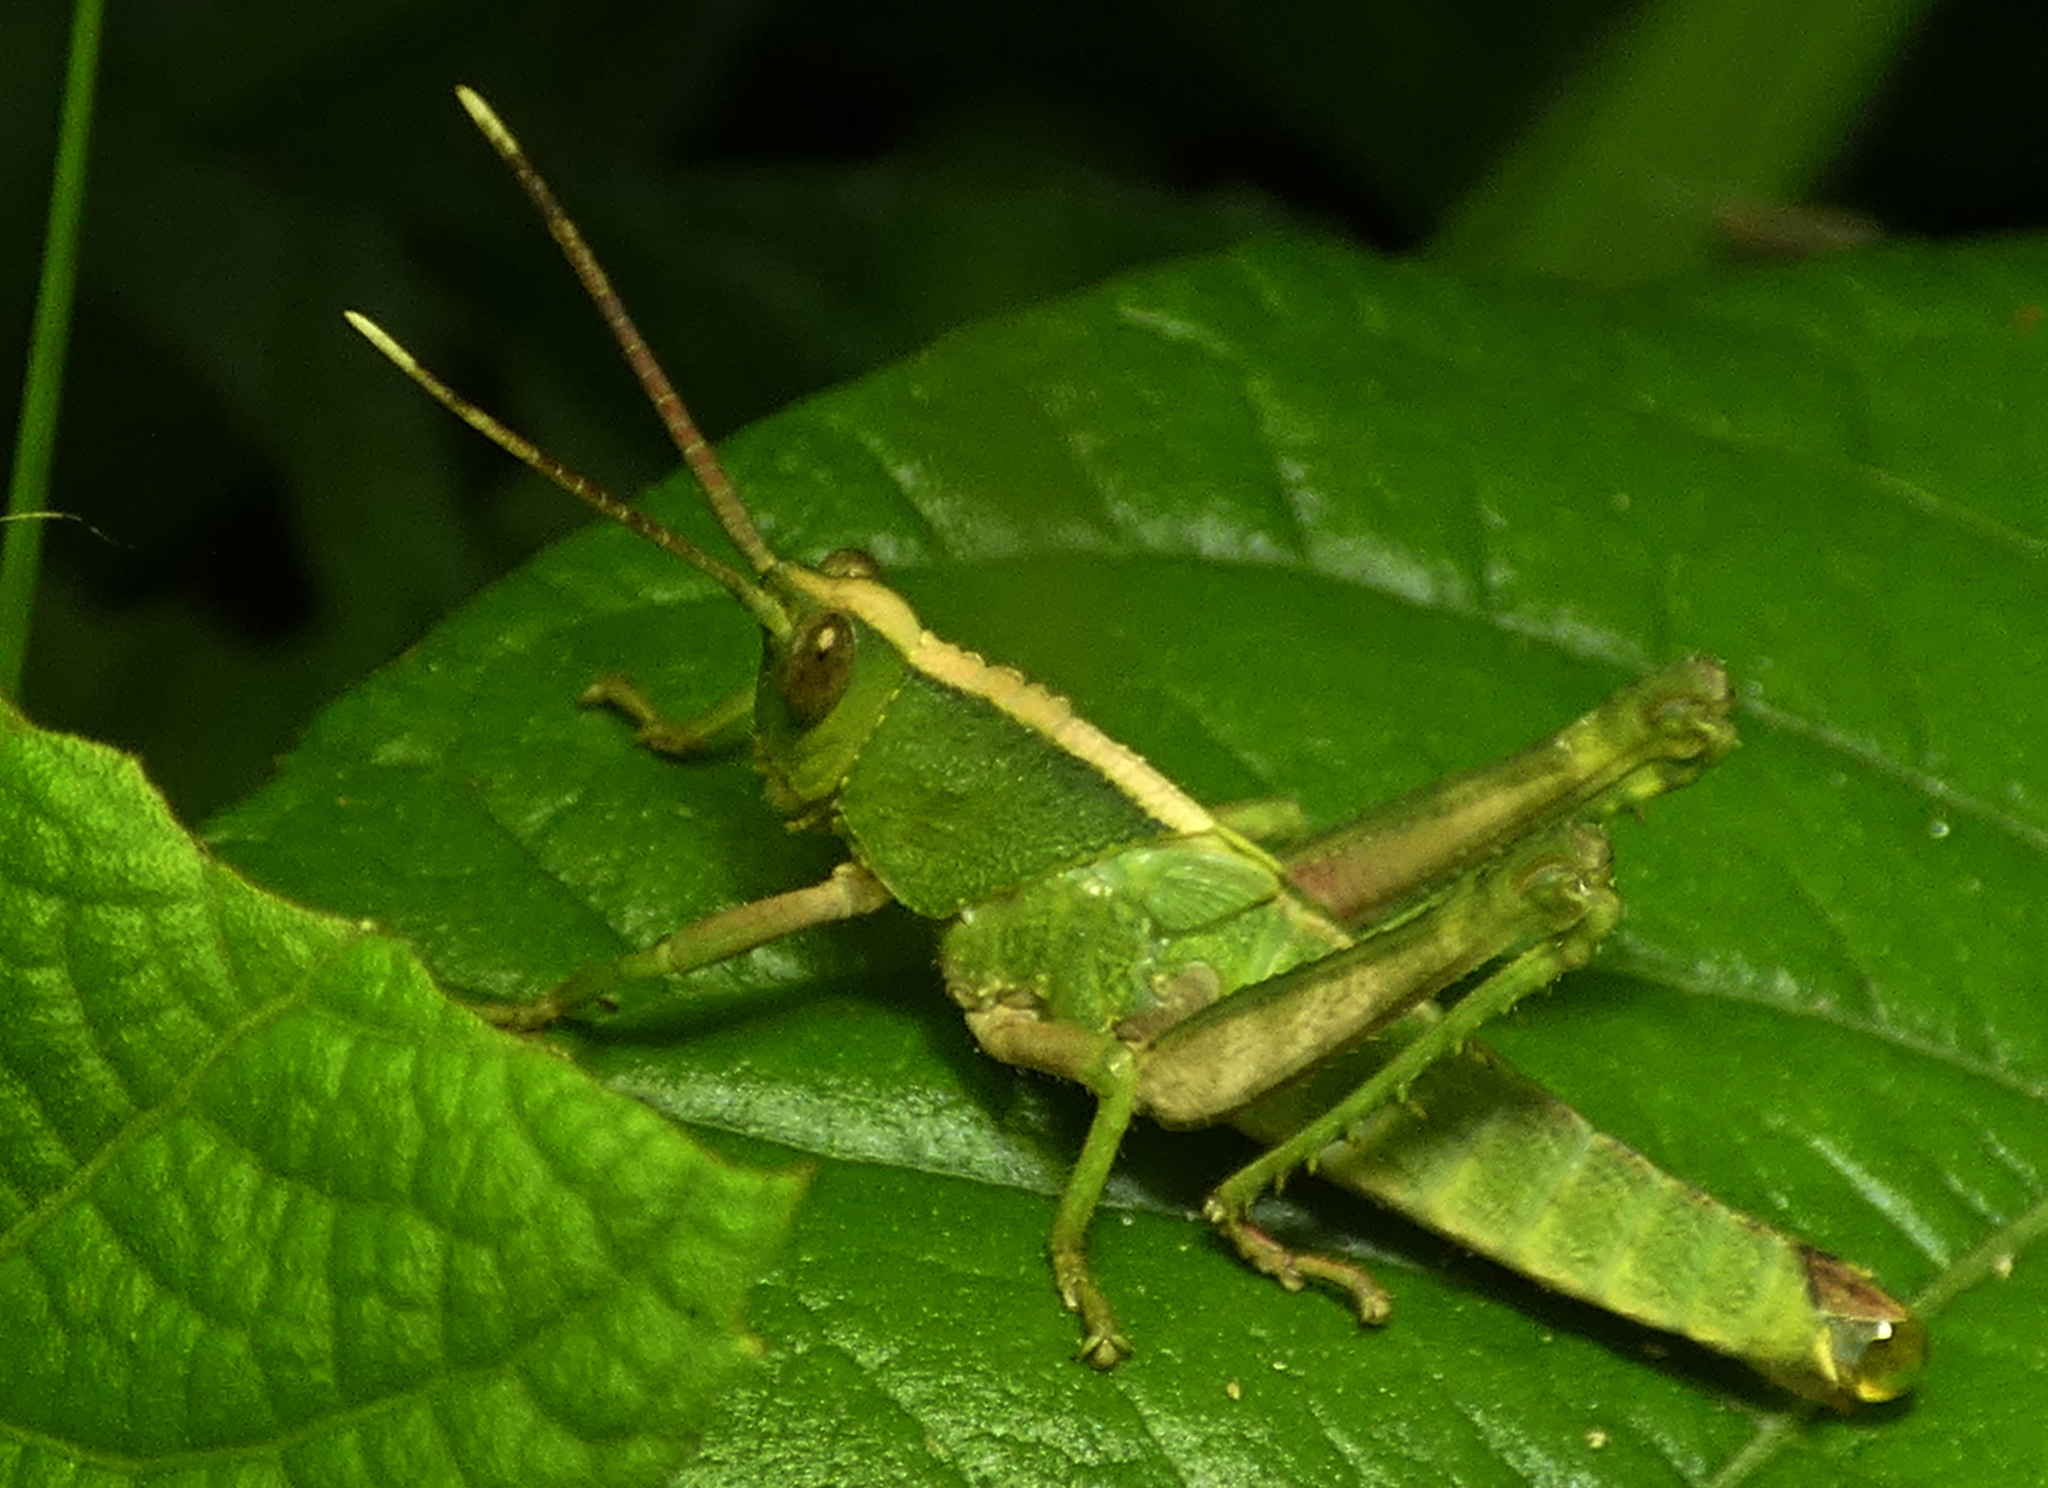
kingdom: Animalia
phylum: Arthropoda
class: Insecta
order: Orthoptera
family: Romaleidae
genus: Agriacris
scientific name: Agriacris auripennis
